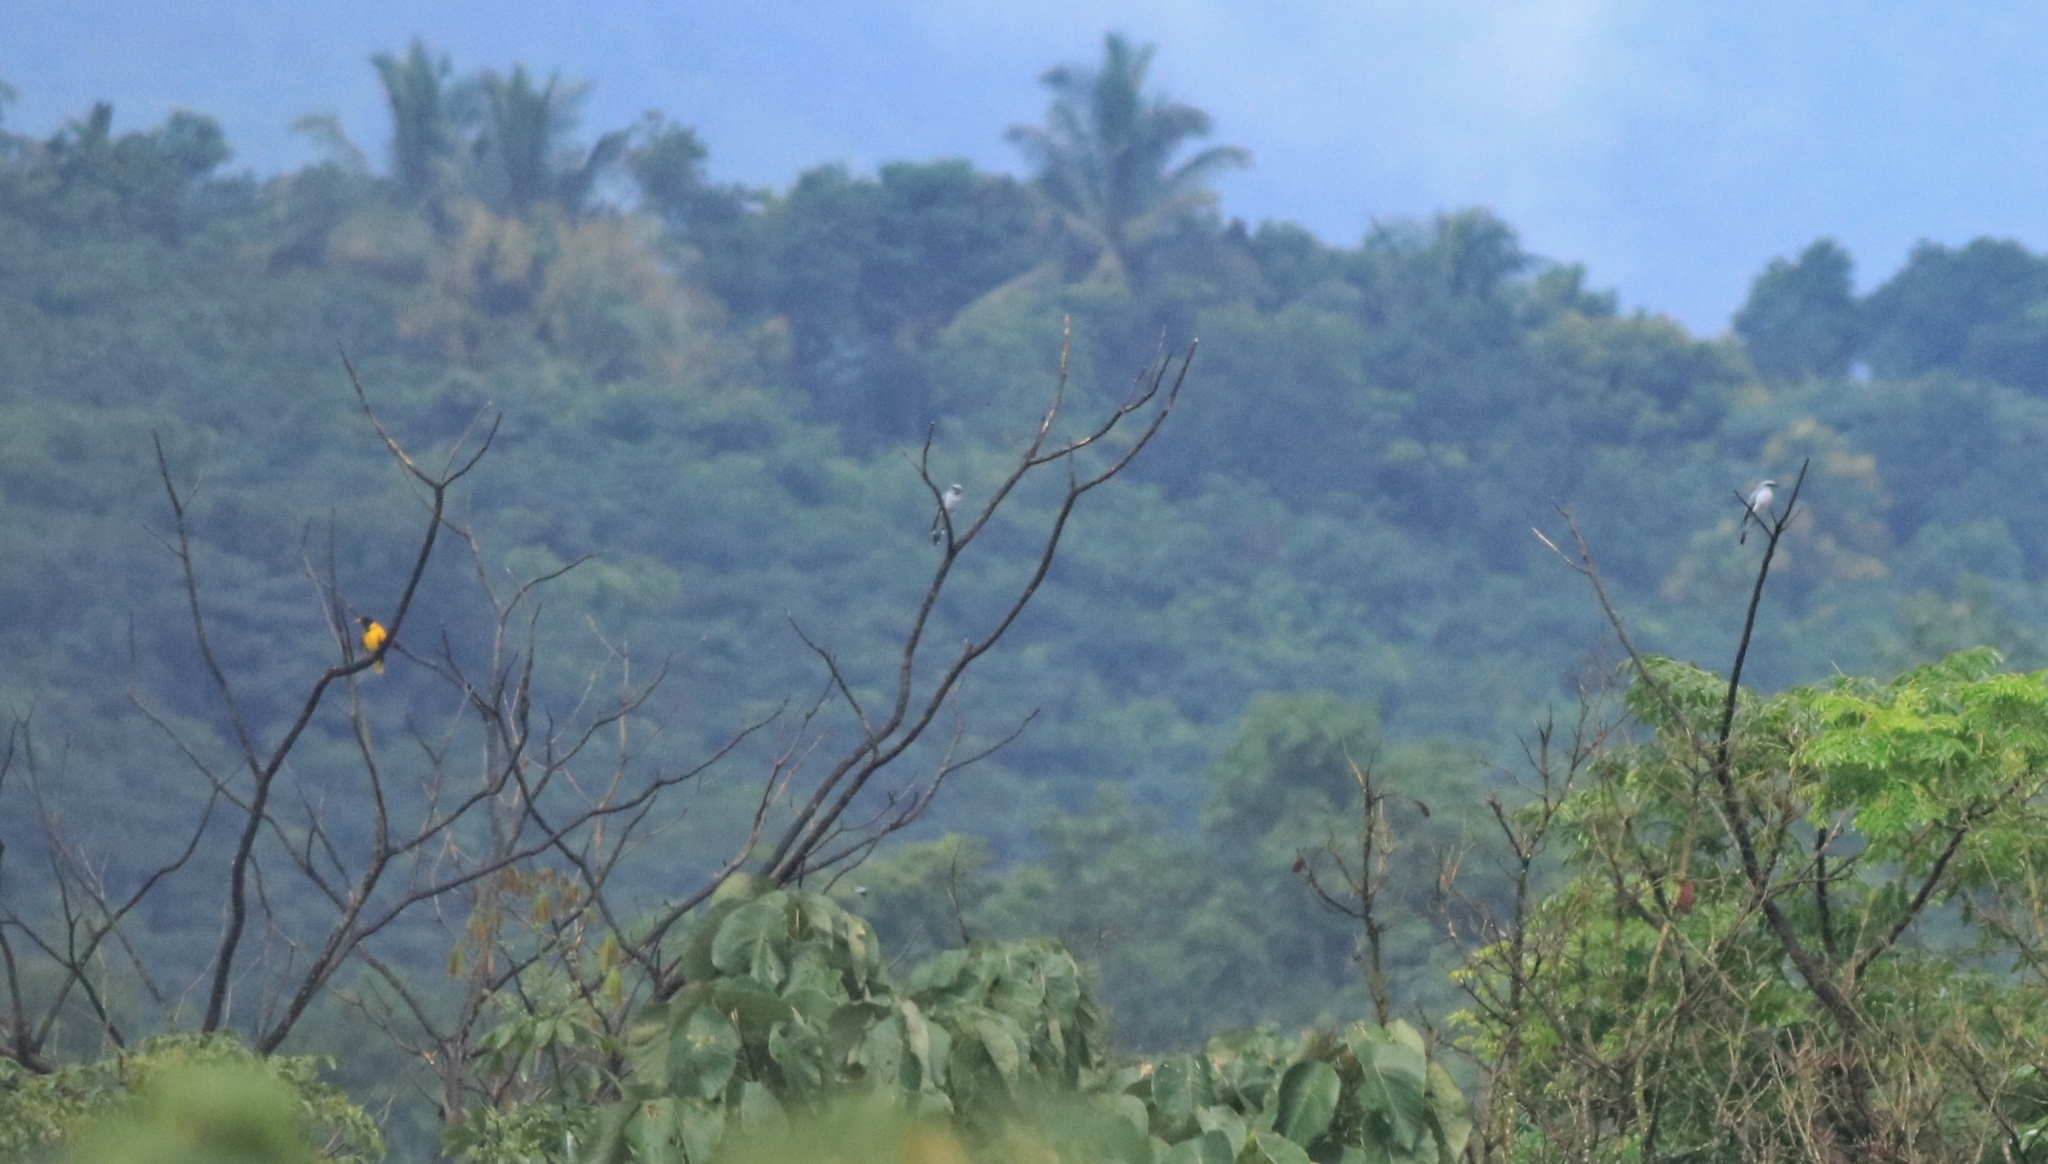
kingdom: Animalia
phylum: Chordata
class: Aves
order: Passeriformes
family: Oriolidae
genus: Oriolus
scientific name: Oriolus xanthornus
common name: Black-hooded oriole
